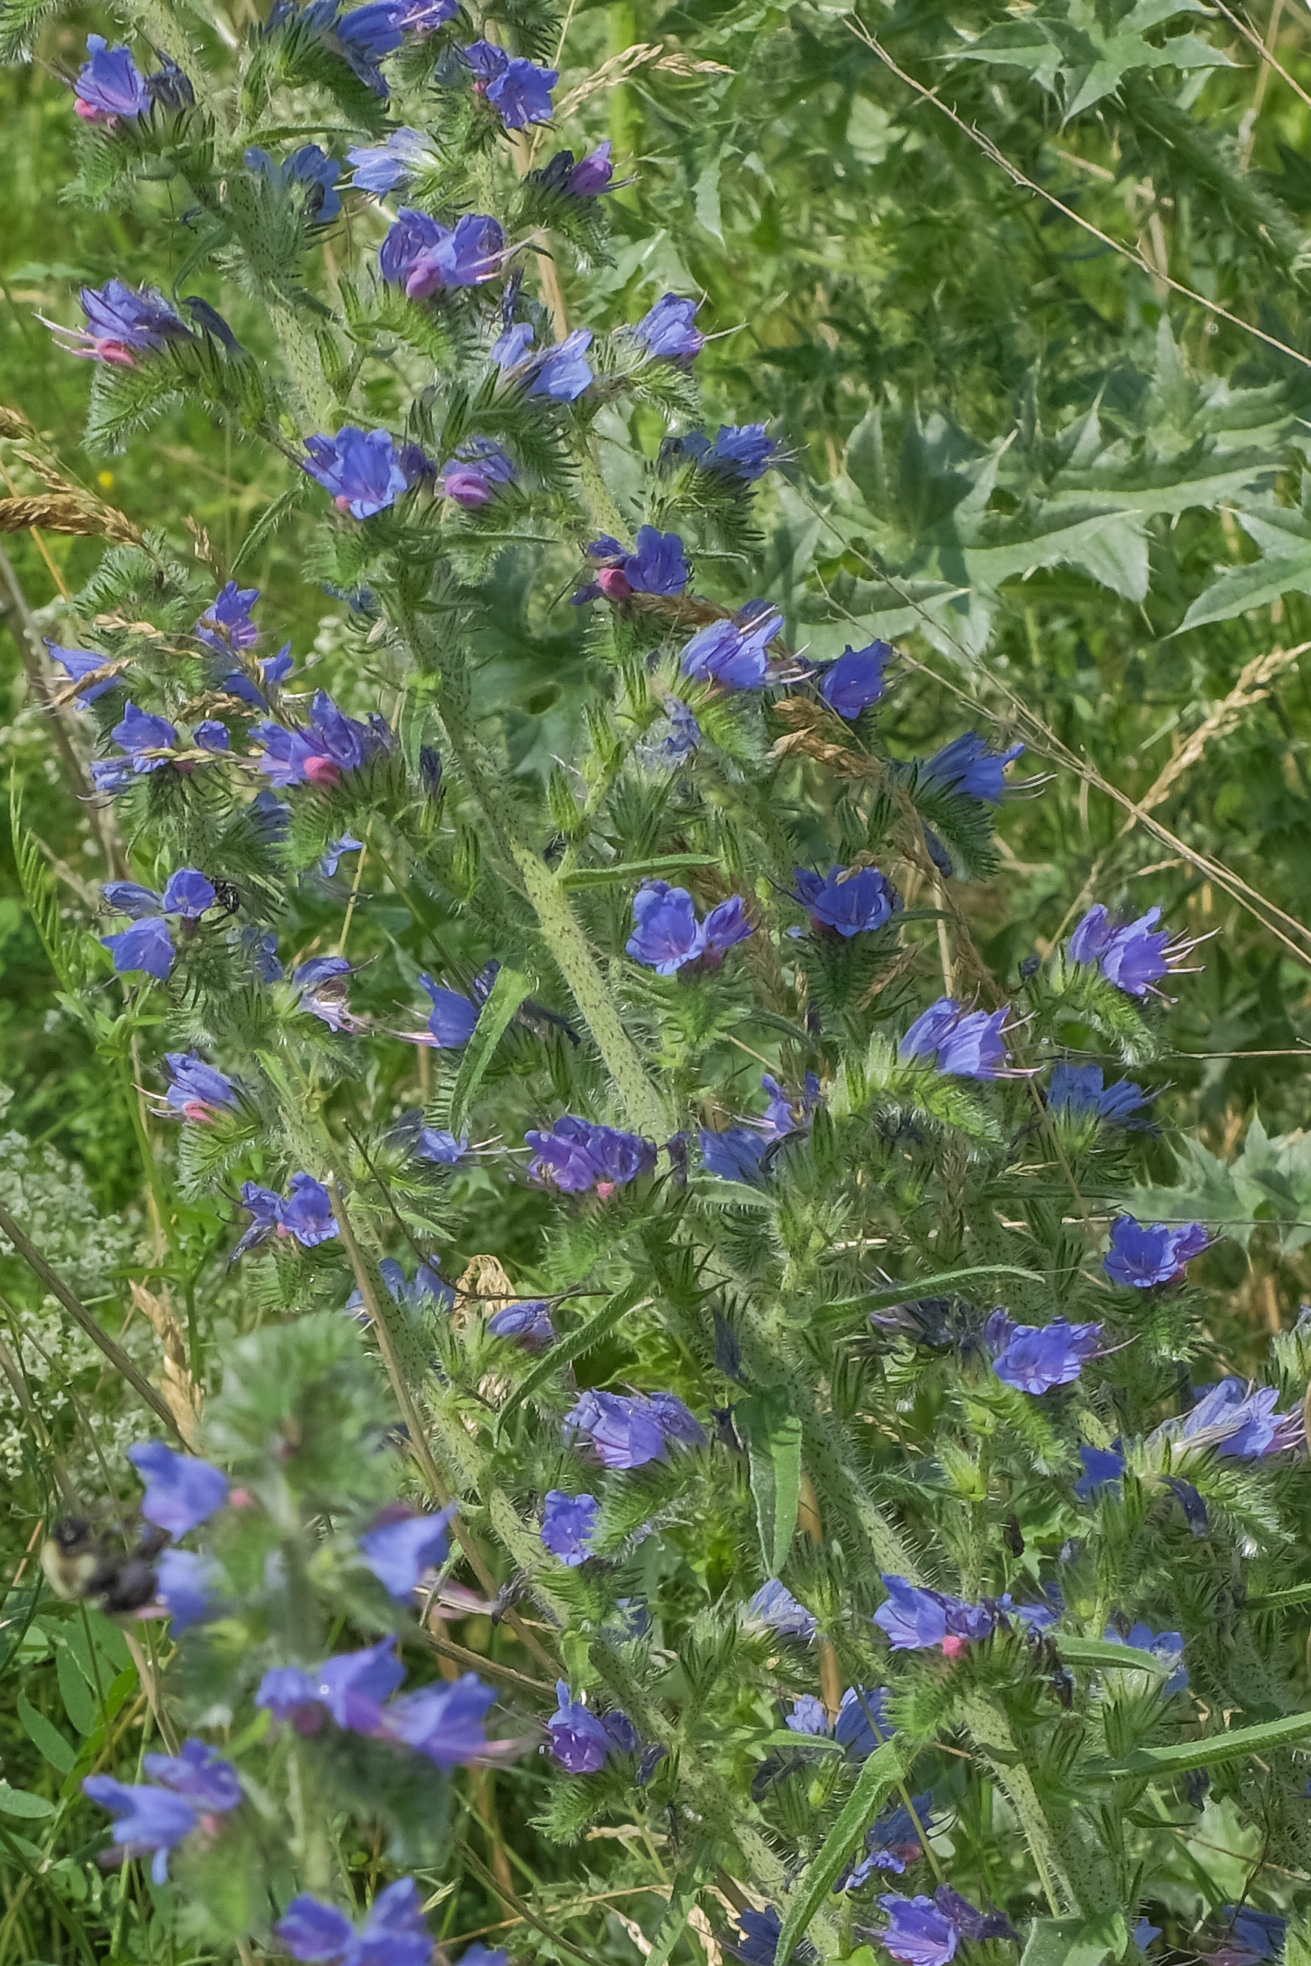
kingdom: Plantae
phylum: Tracheophyta
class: Magnoliopsida
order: Boraginales
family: Boraginaceae
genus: Echium
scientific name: Echium vulgare
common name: Common viper's bugloss
